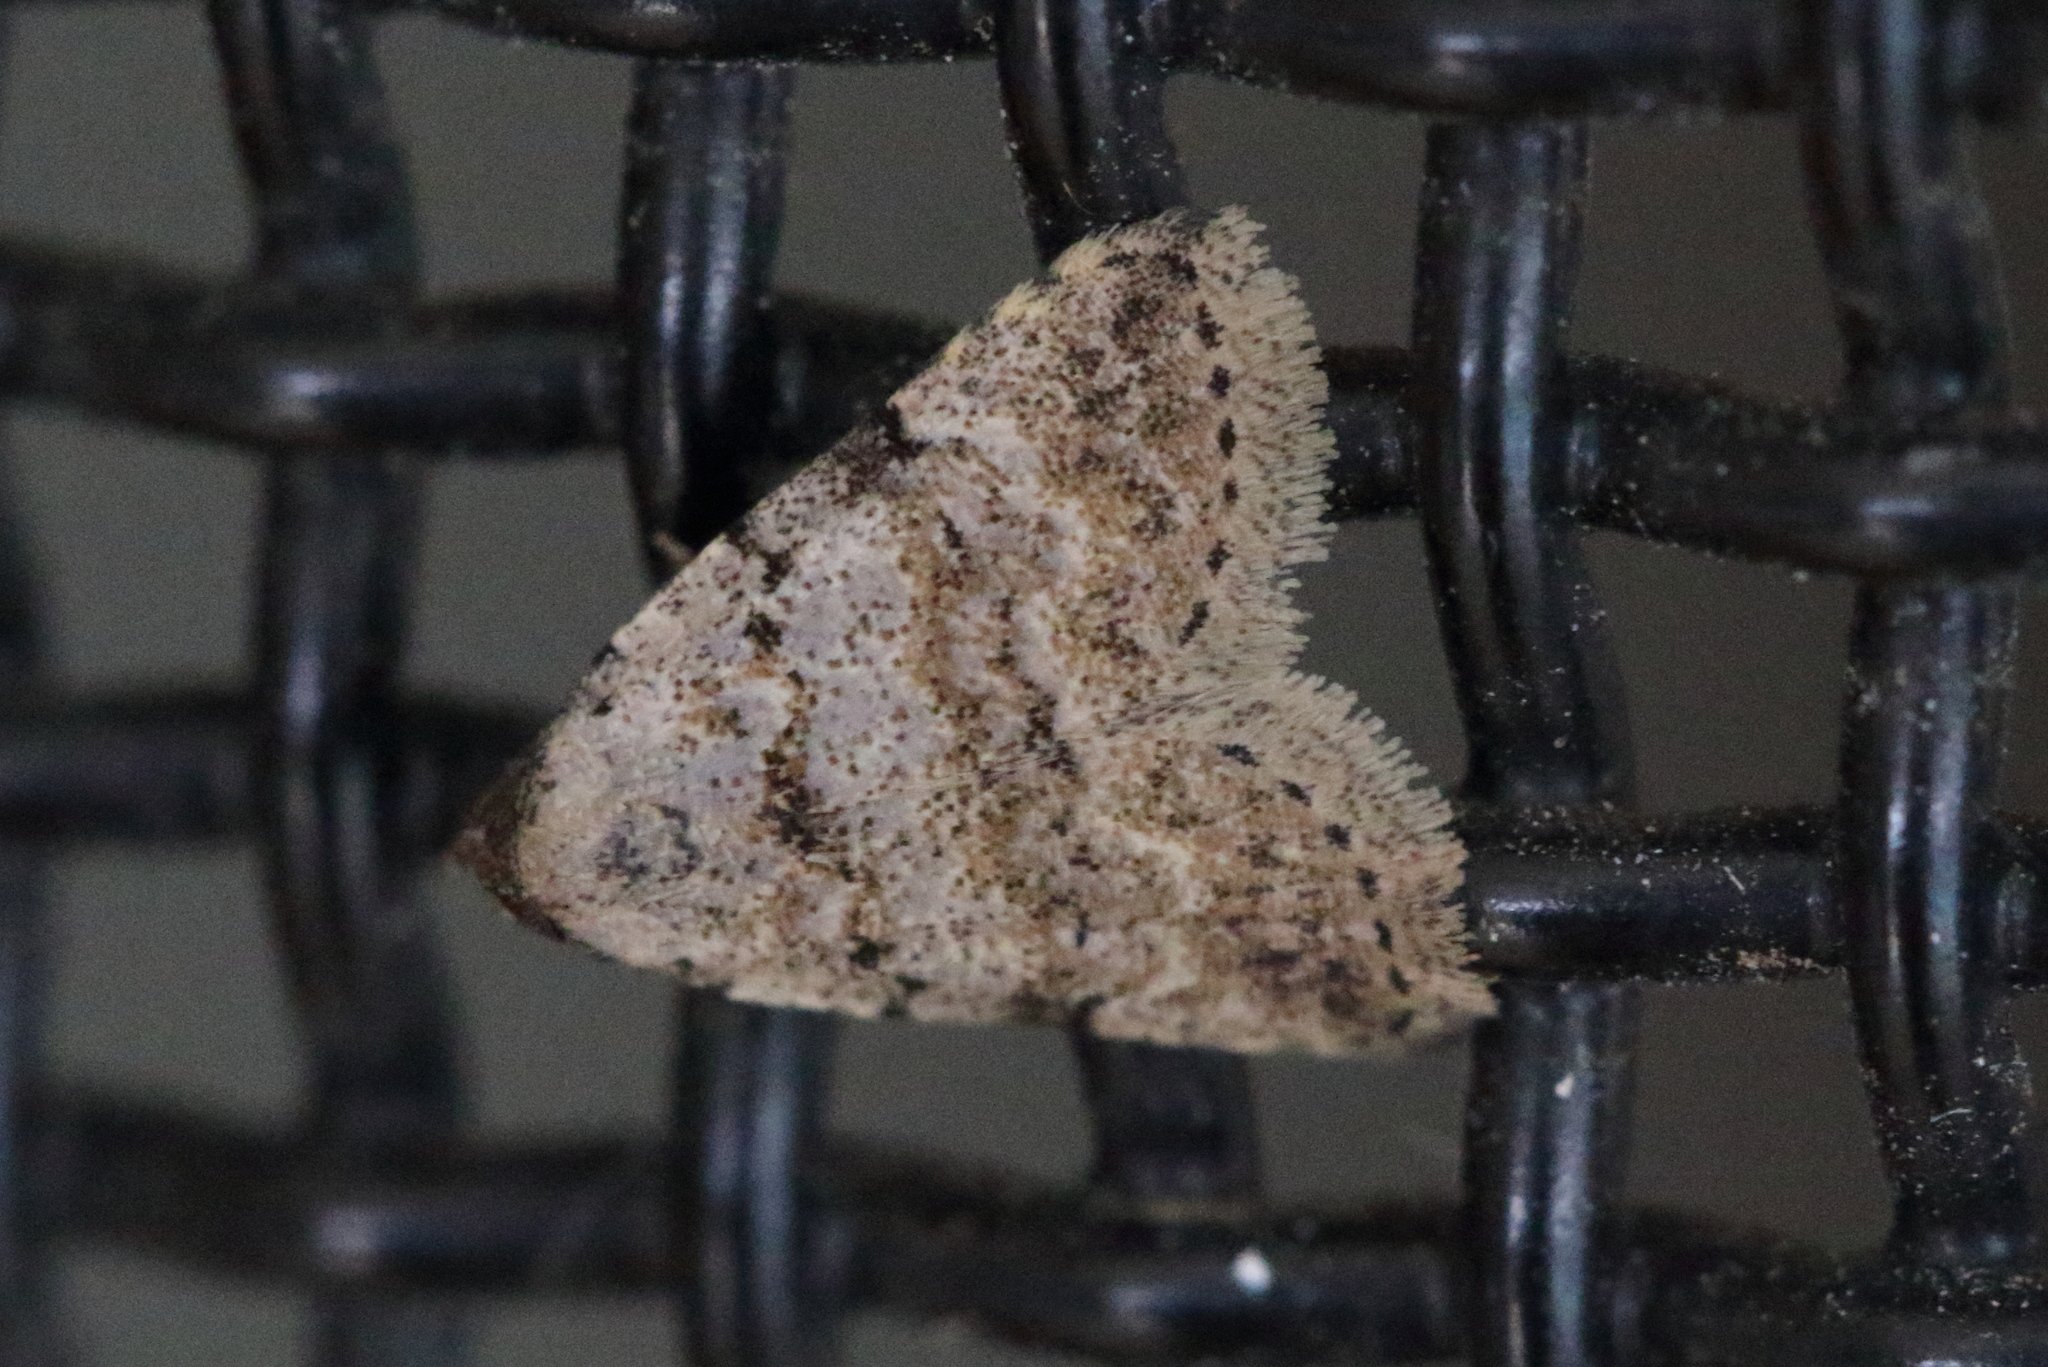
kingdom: Animalia
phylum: Arthropoda
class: Insecta
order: Lepidoptera
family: Erebidae
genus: Magna
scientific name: Magna myops
